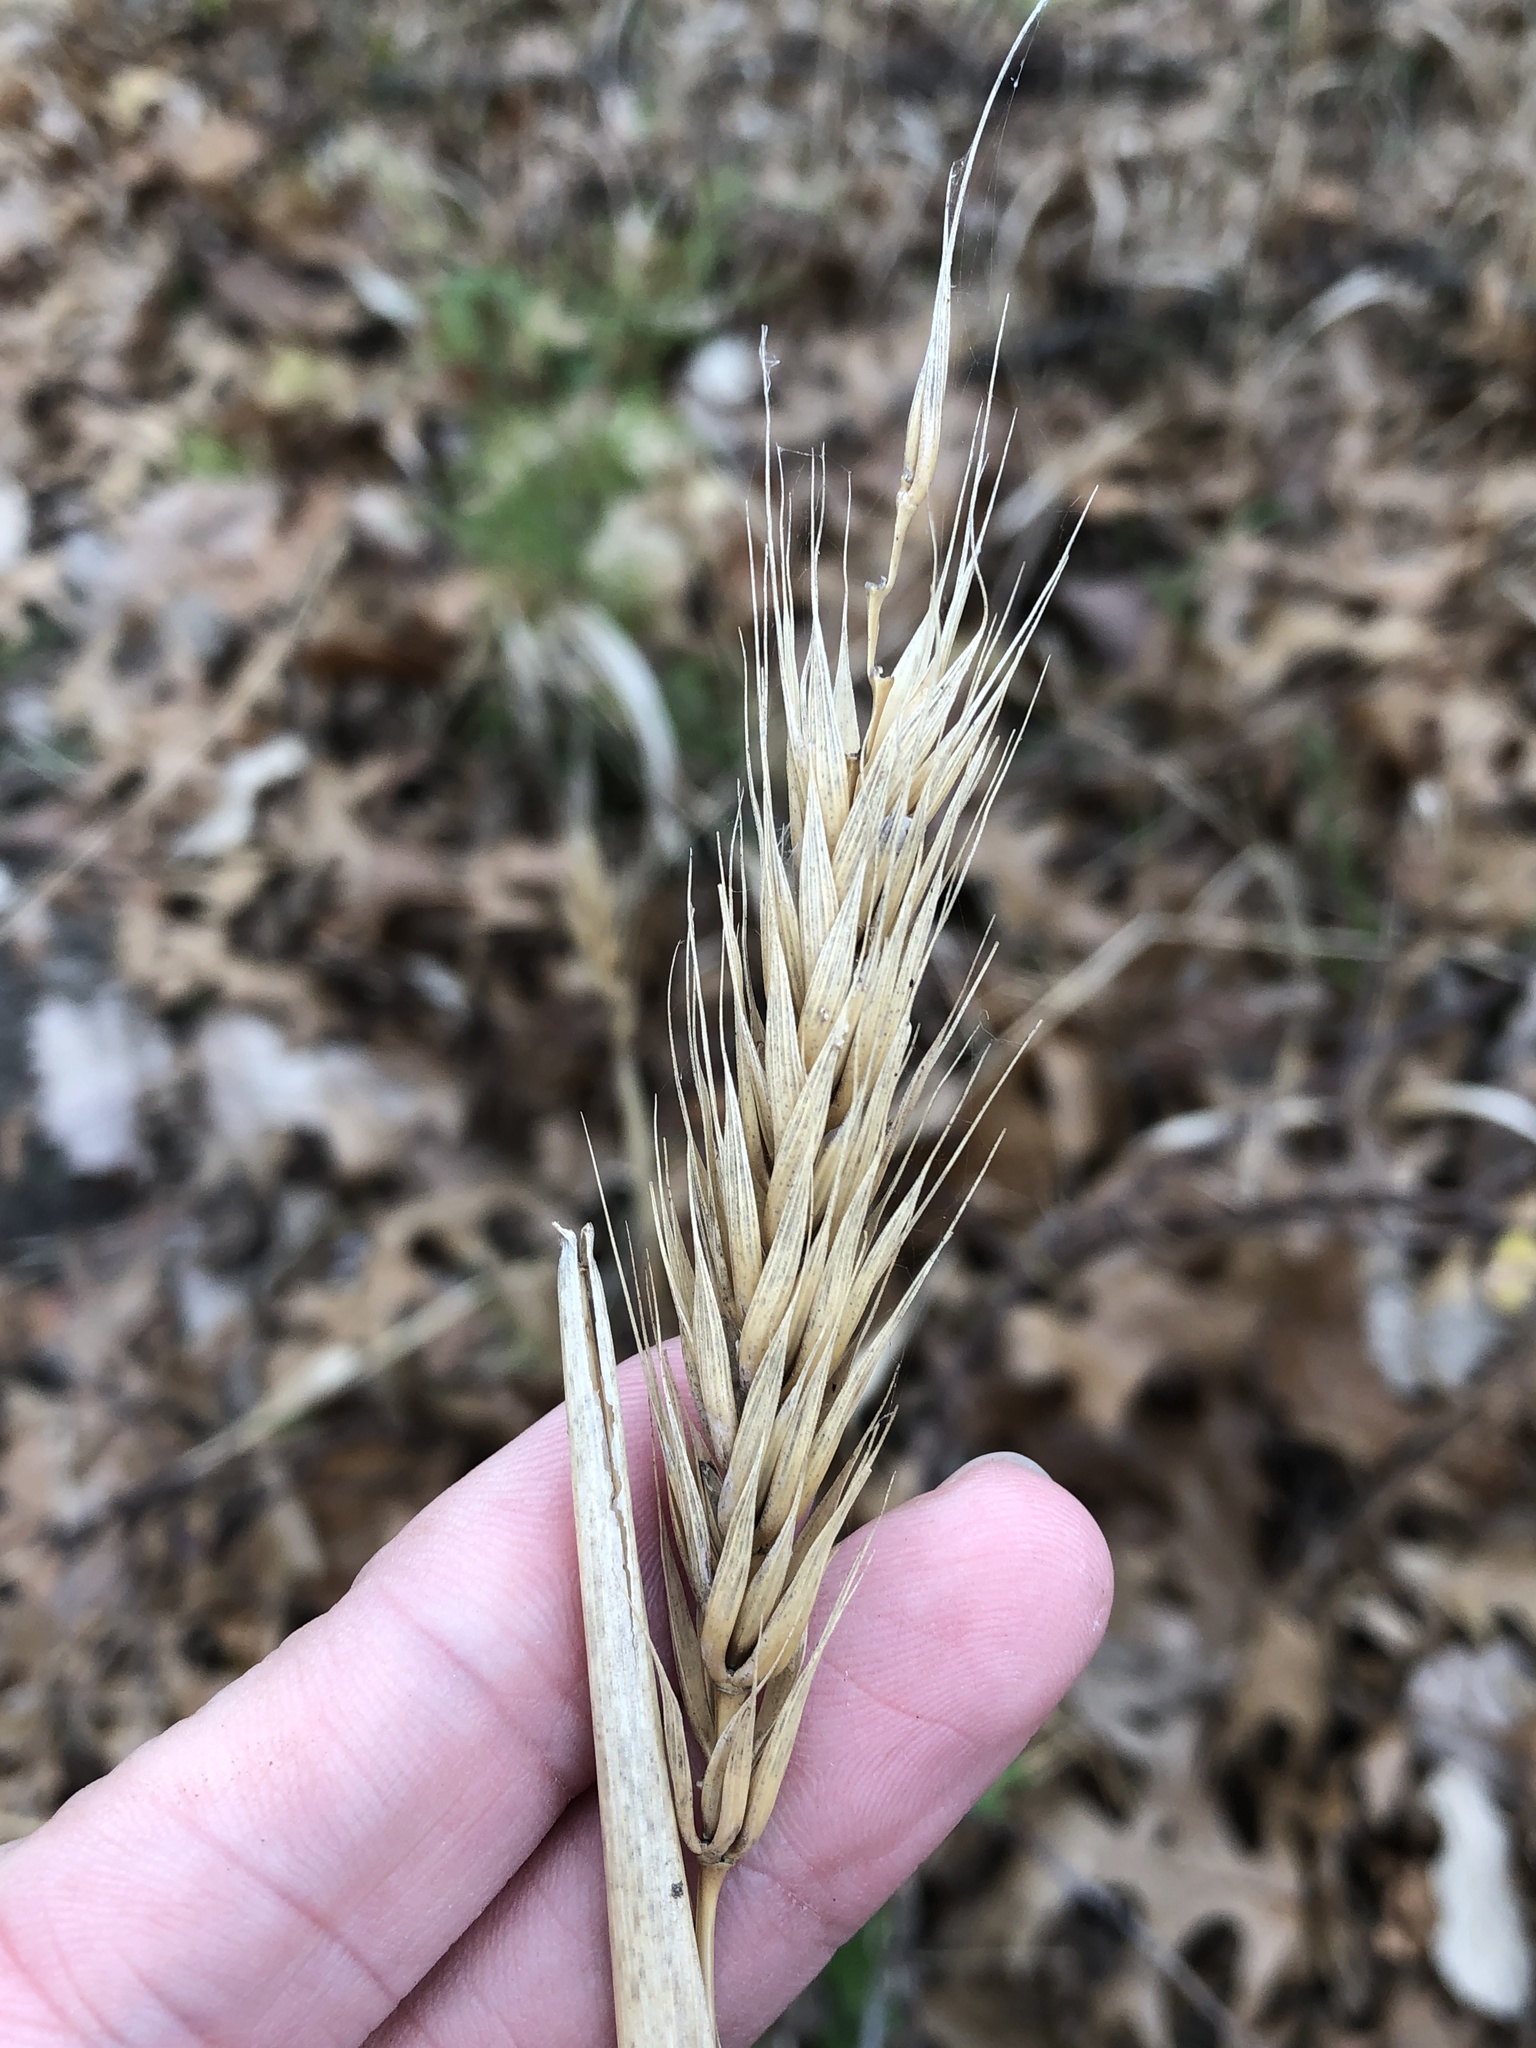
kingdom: Plantae
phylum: Tracheophyta
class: Liliopsida
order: Poales
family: Poaceae
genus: Elymus
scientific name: Elymus virginicus
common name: Common eastern wildrye
